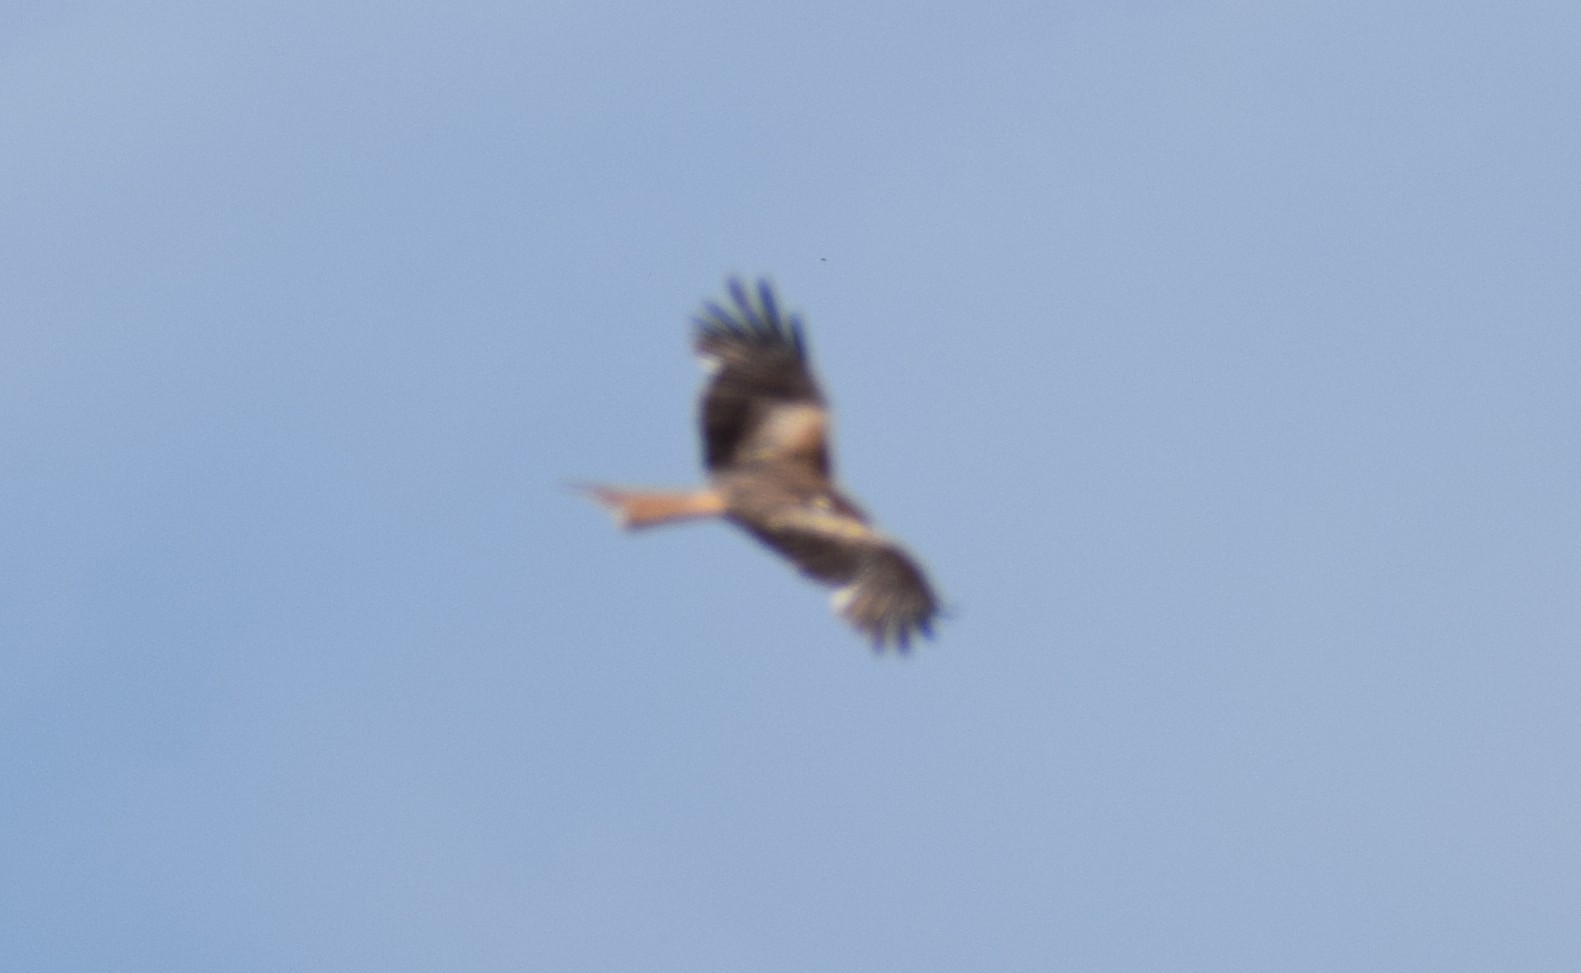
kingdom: Animalia
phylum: Chordata
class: Aves
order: Accipitriformes
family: Accipitridae
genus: Milvus
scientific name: Milvus milvus
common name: Red kite
